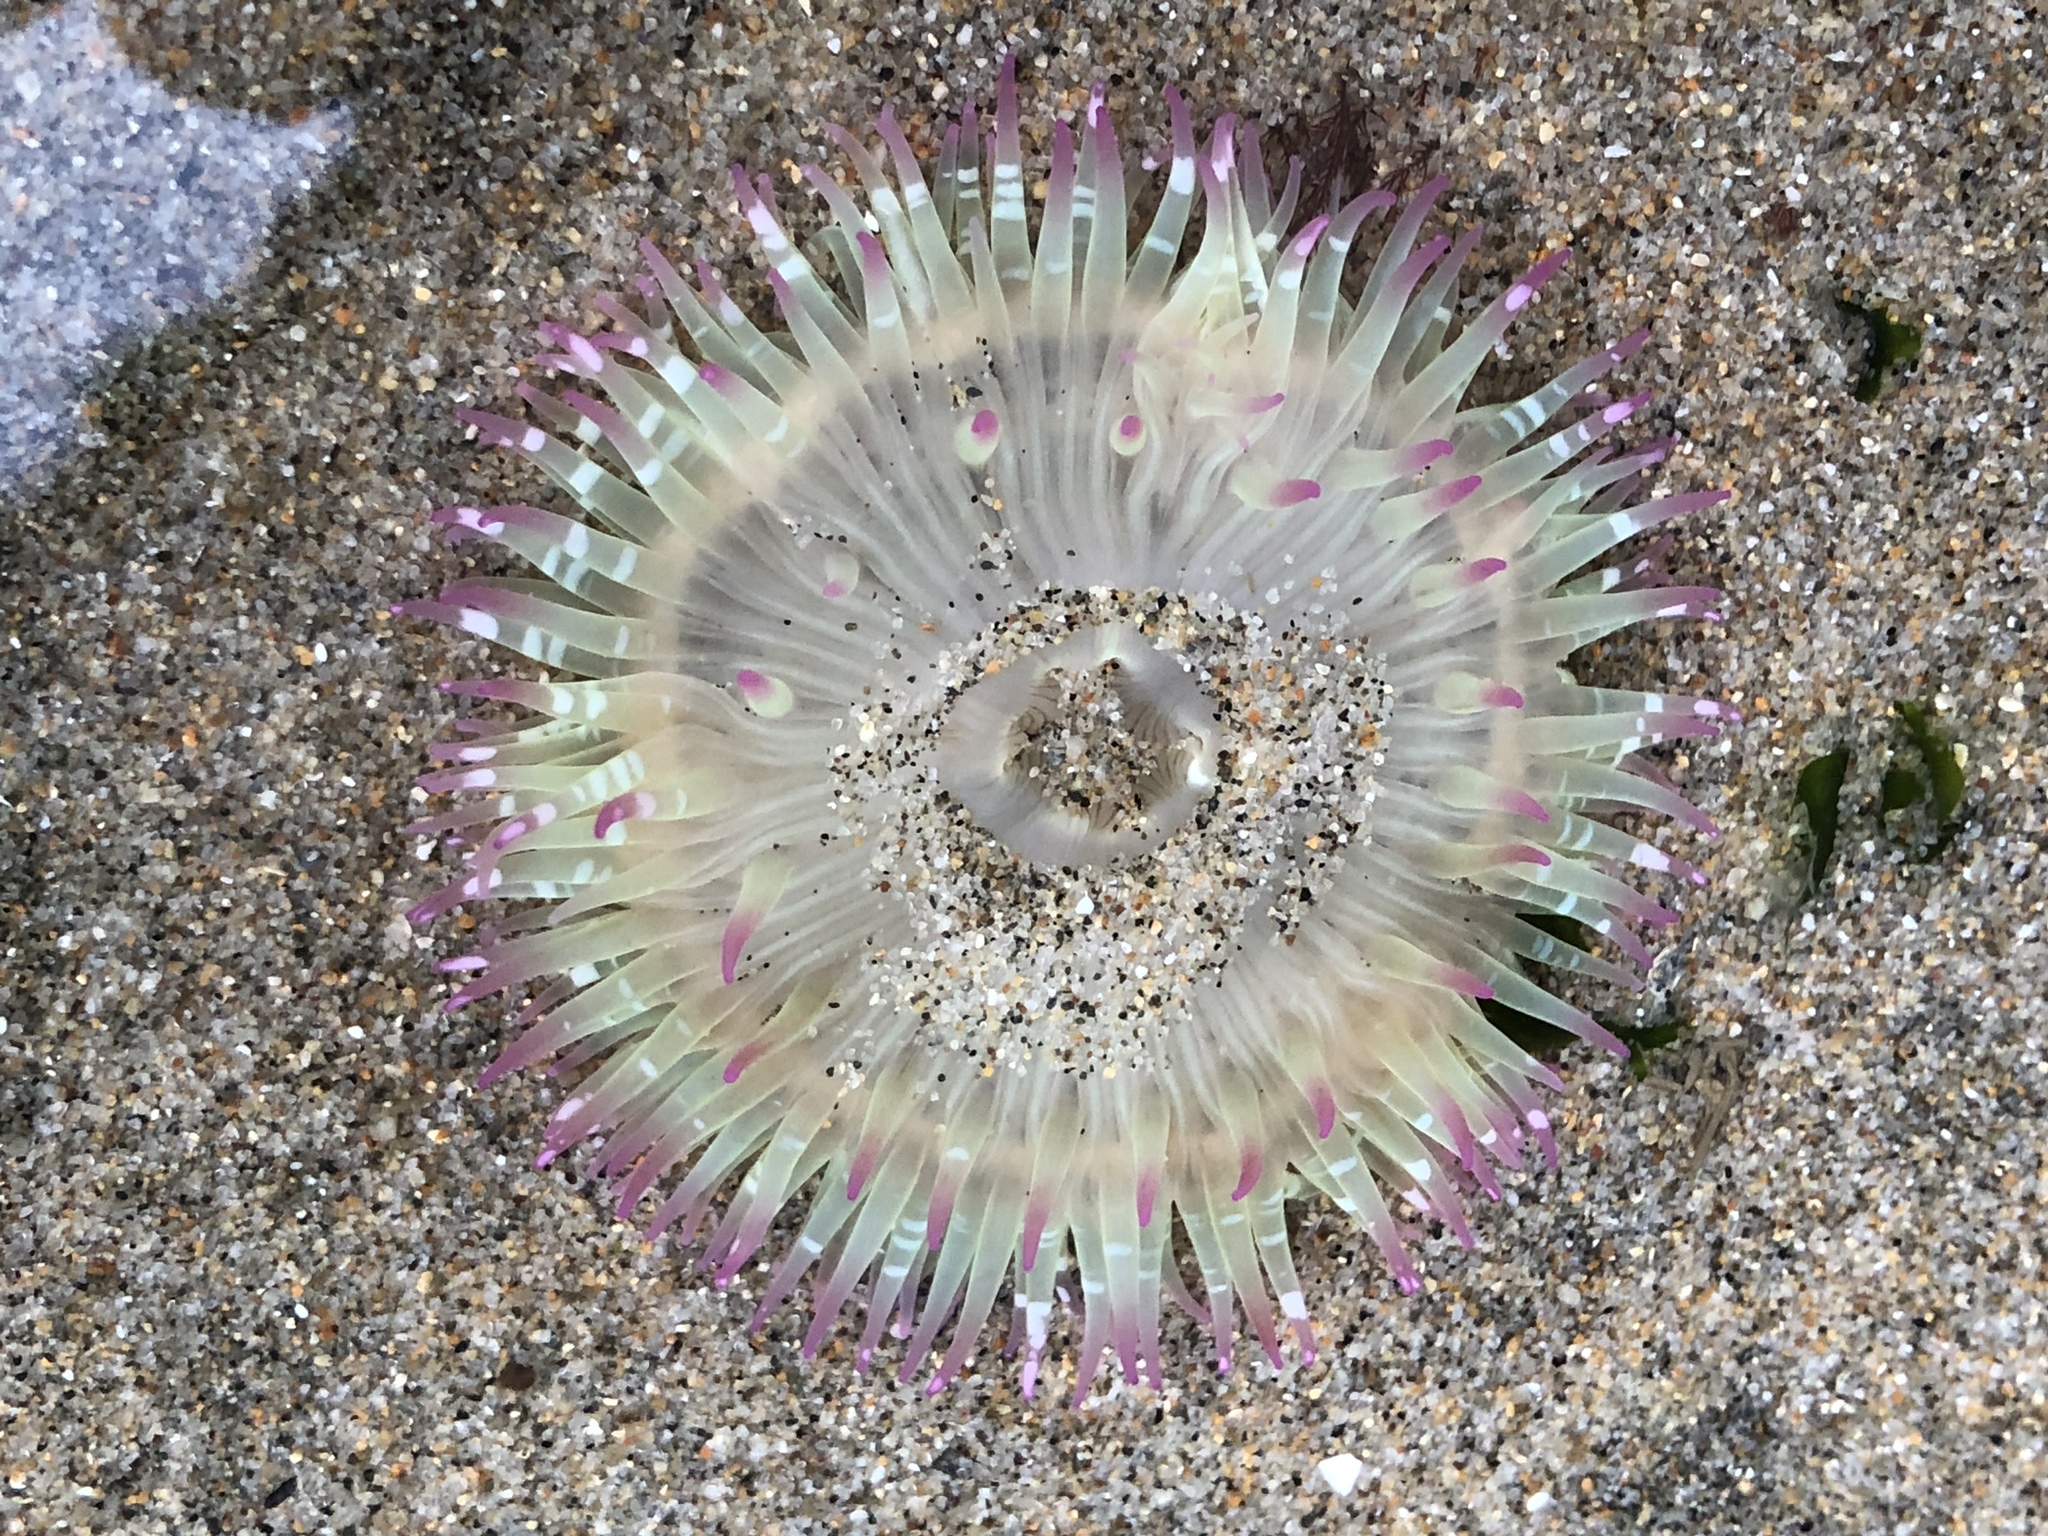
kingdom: Animalia
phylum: Cnidaria
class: Anthozoa
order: Actiniaria
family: Actiniidae
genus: Anthopleura
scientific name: Anthopleura elegantissima
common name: Clonal anemone
